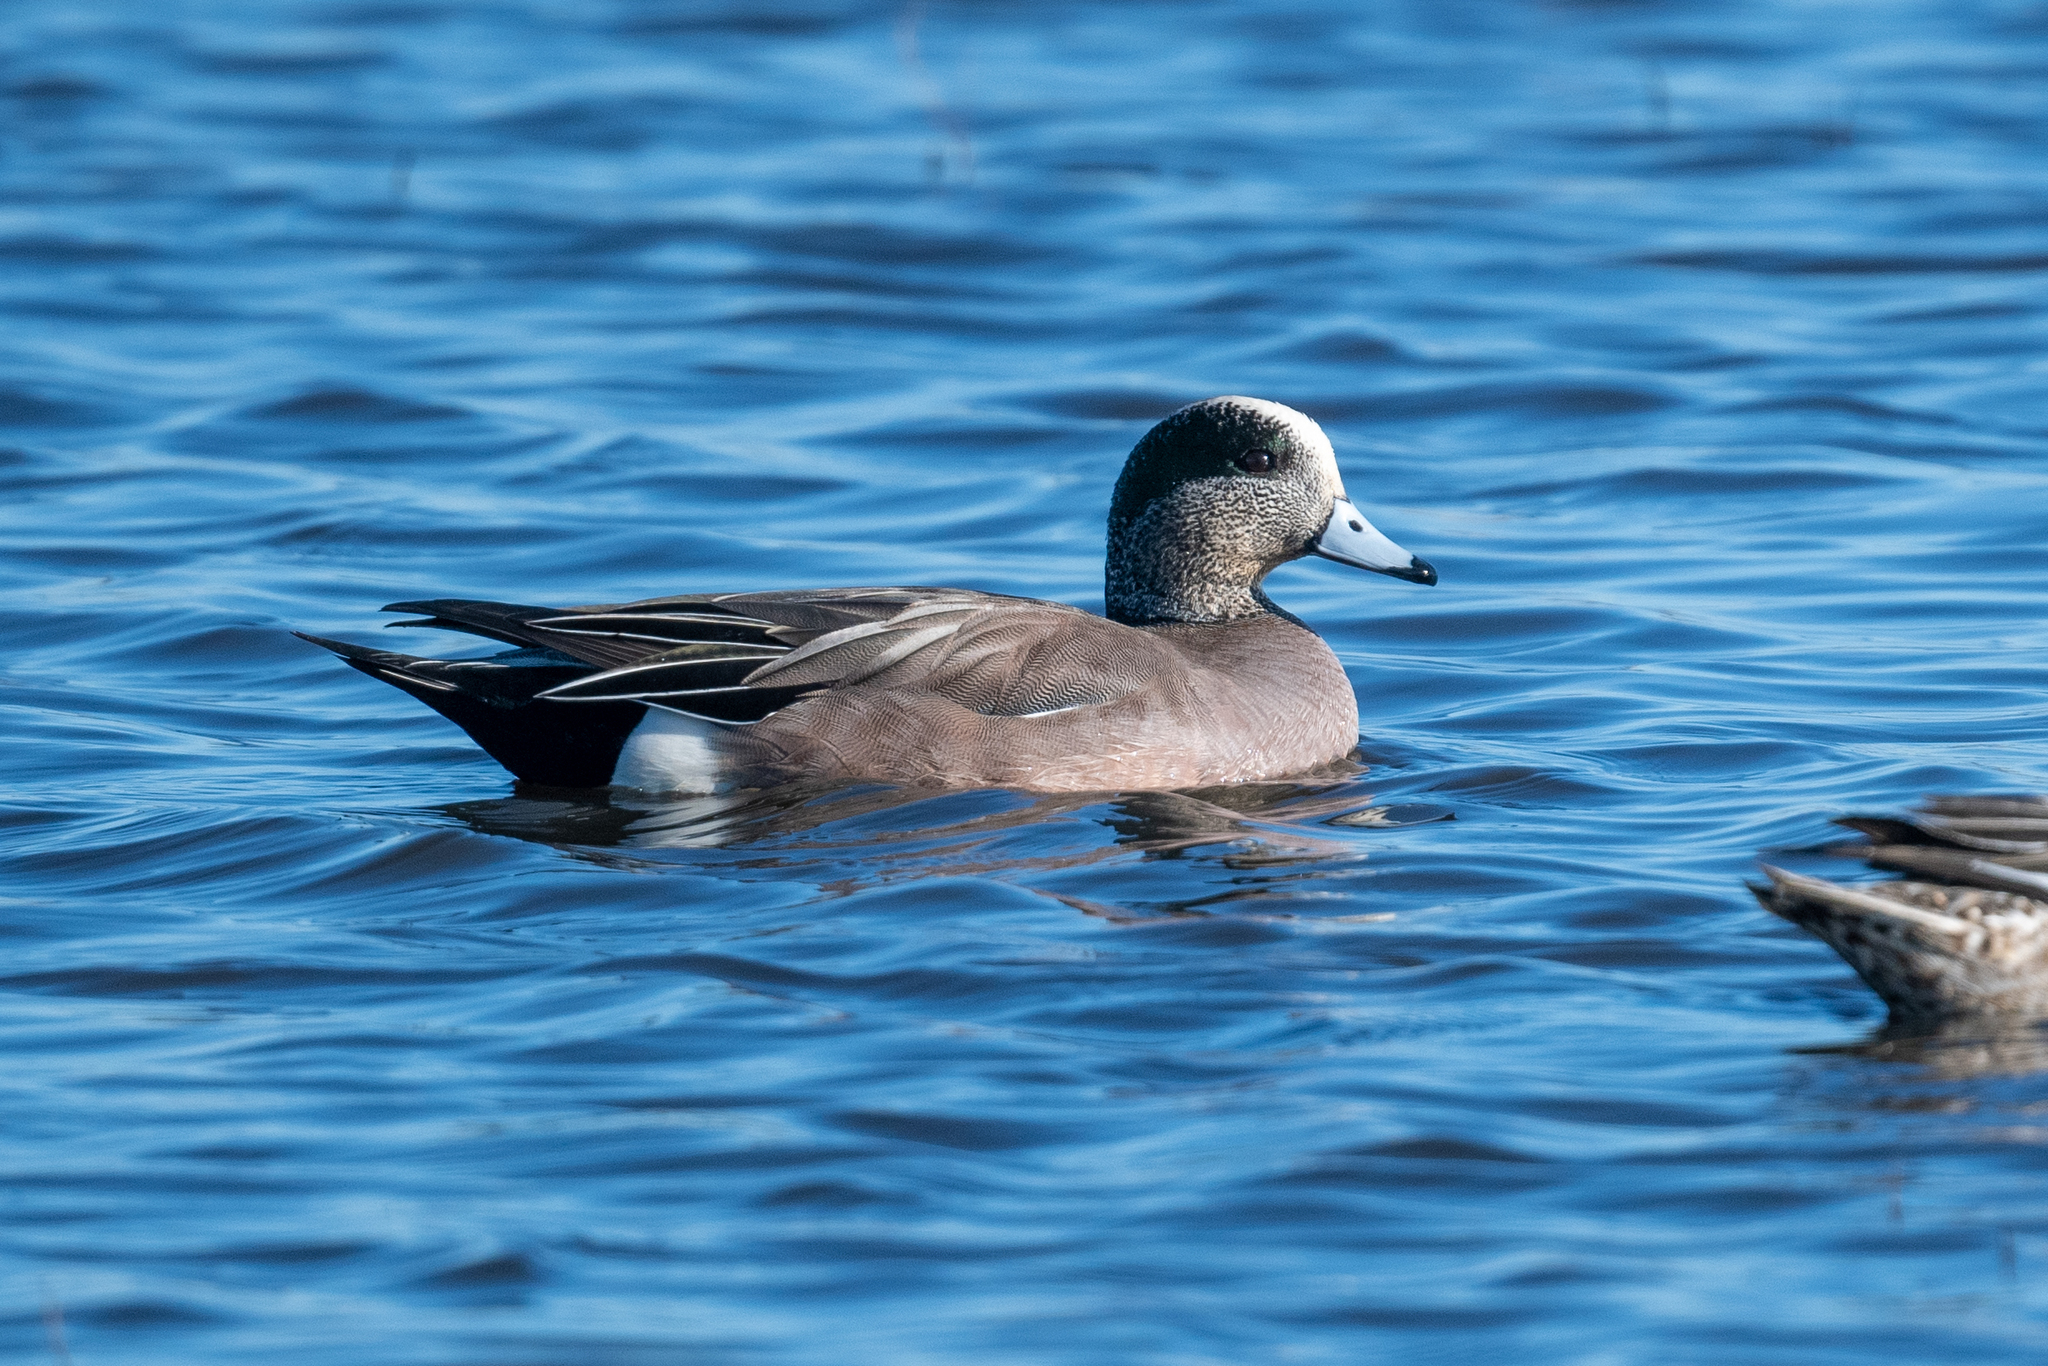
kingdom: Animalia
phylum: Chordata
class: Aves
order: Anseriformes
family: Anatidae
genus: Mareca
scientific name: Mareca americana
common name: American wigeon
